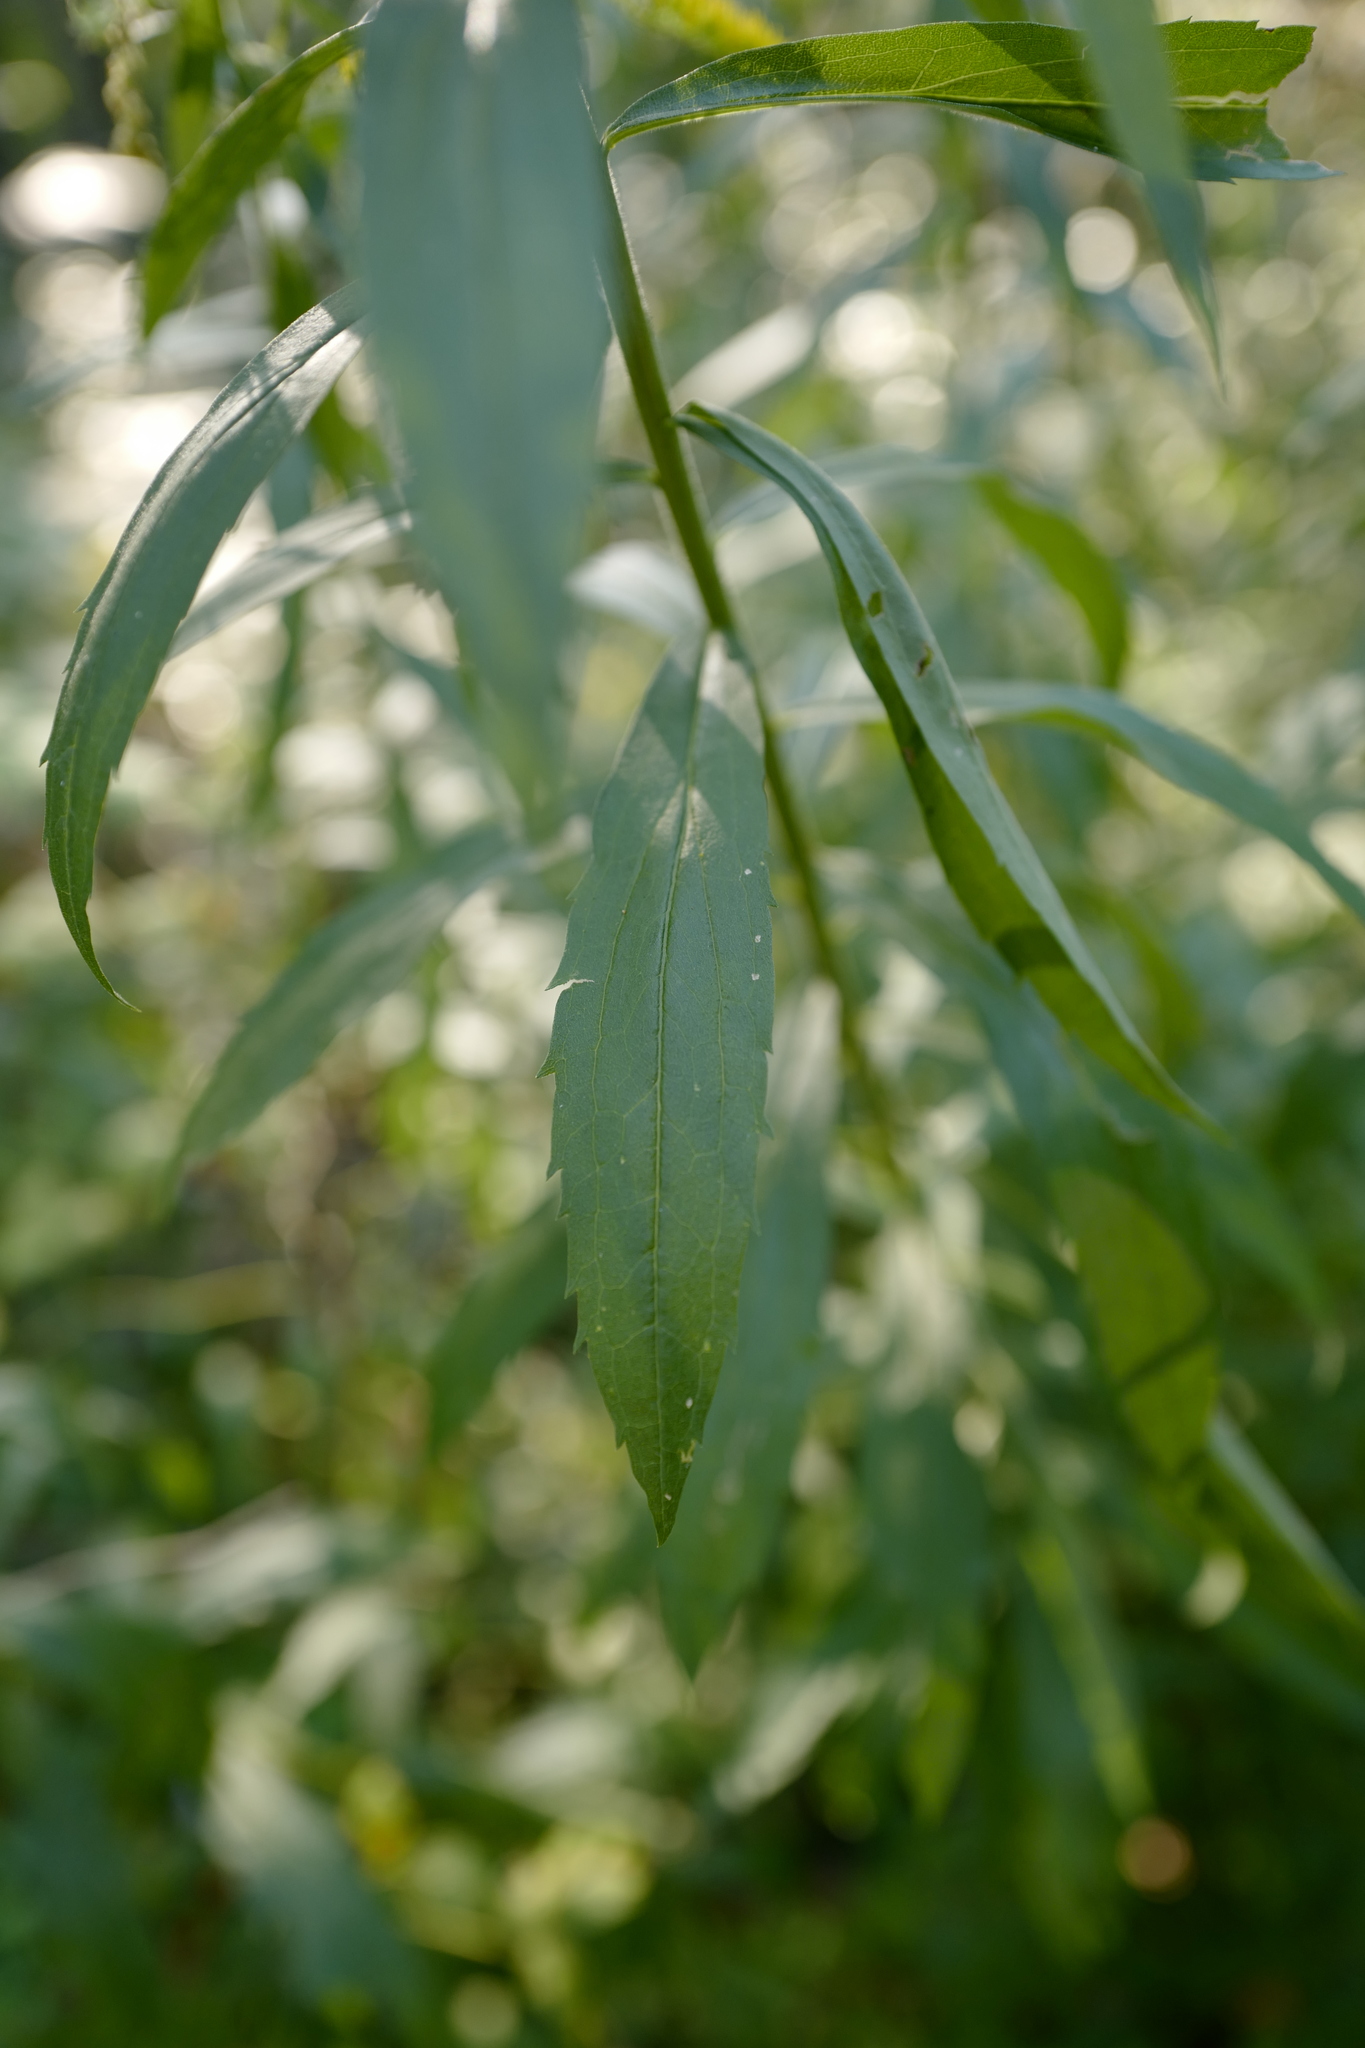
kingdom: Plantae
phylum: Tracheophyta
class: Magnoliopsida
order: Asterales
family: Asteraceae
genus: Solidago
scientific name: Solidago canadensis
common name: Canada goldenrod
